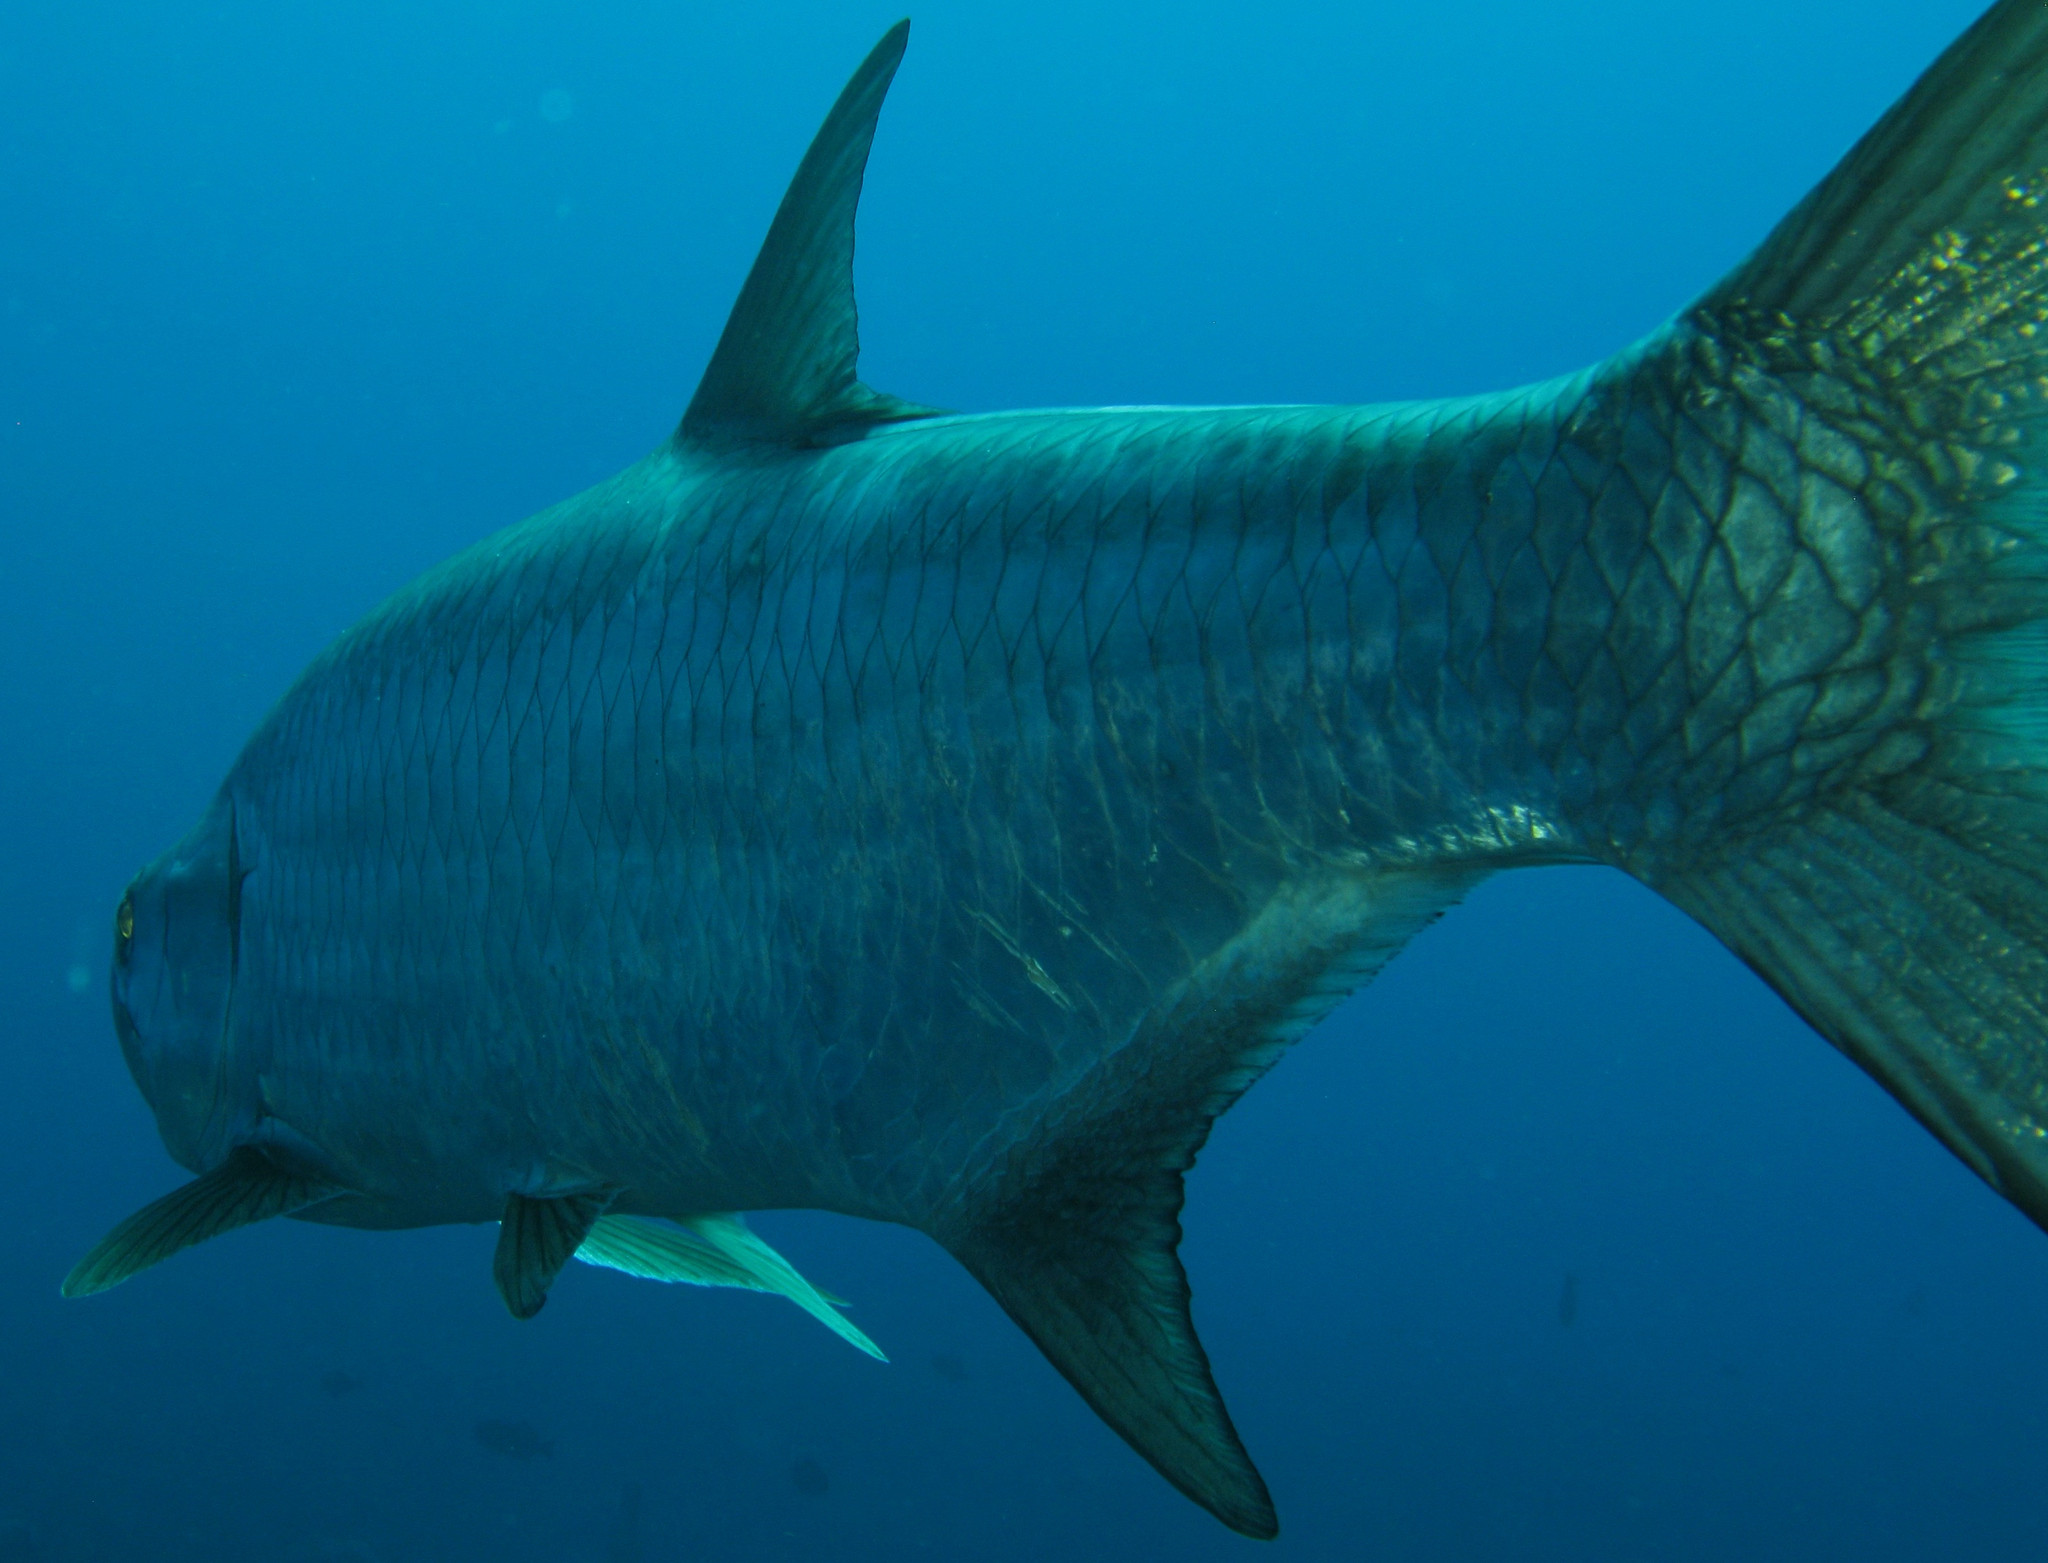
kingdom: Animalia
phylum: Chordata
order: Elopiformes
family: Megalopidae
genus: Megalops
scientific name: Megalops atlanticus
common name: Tarpon
